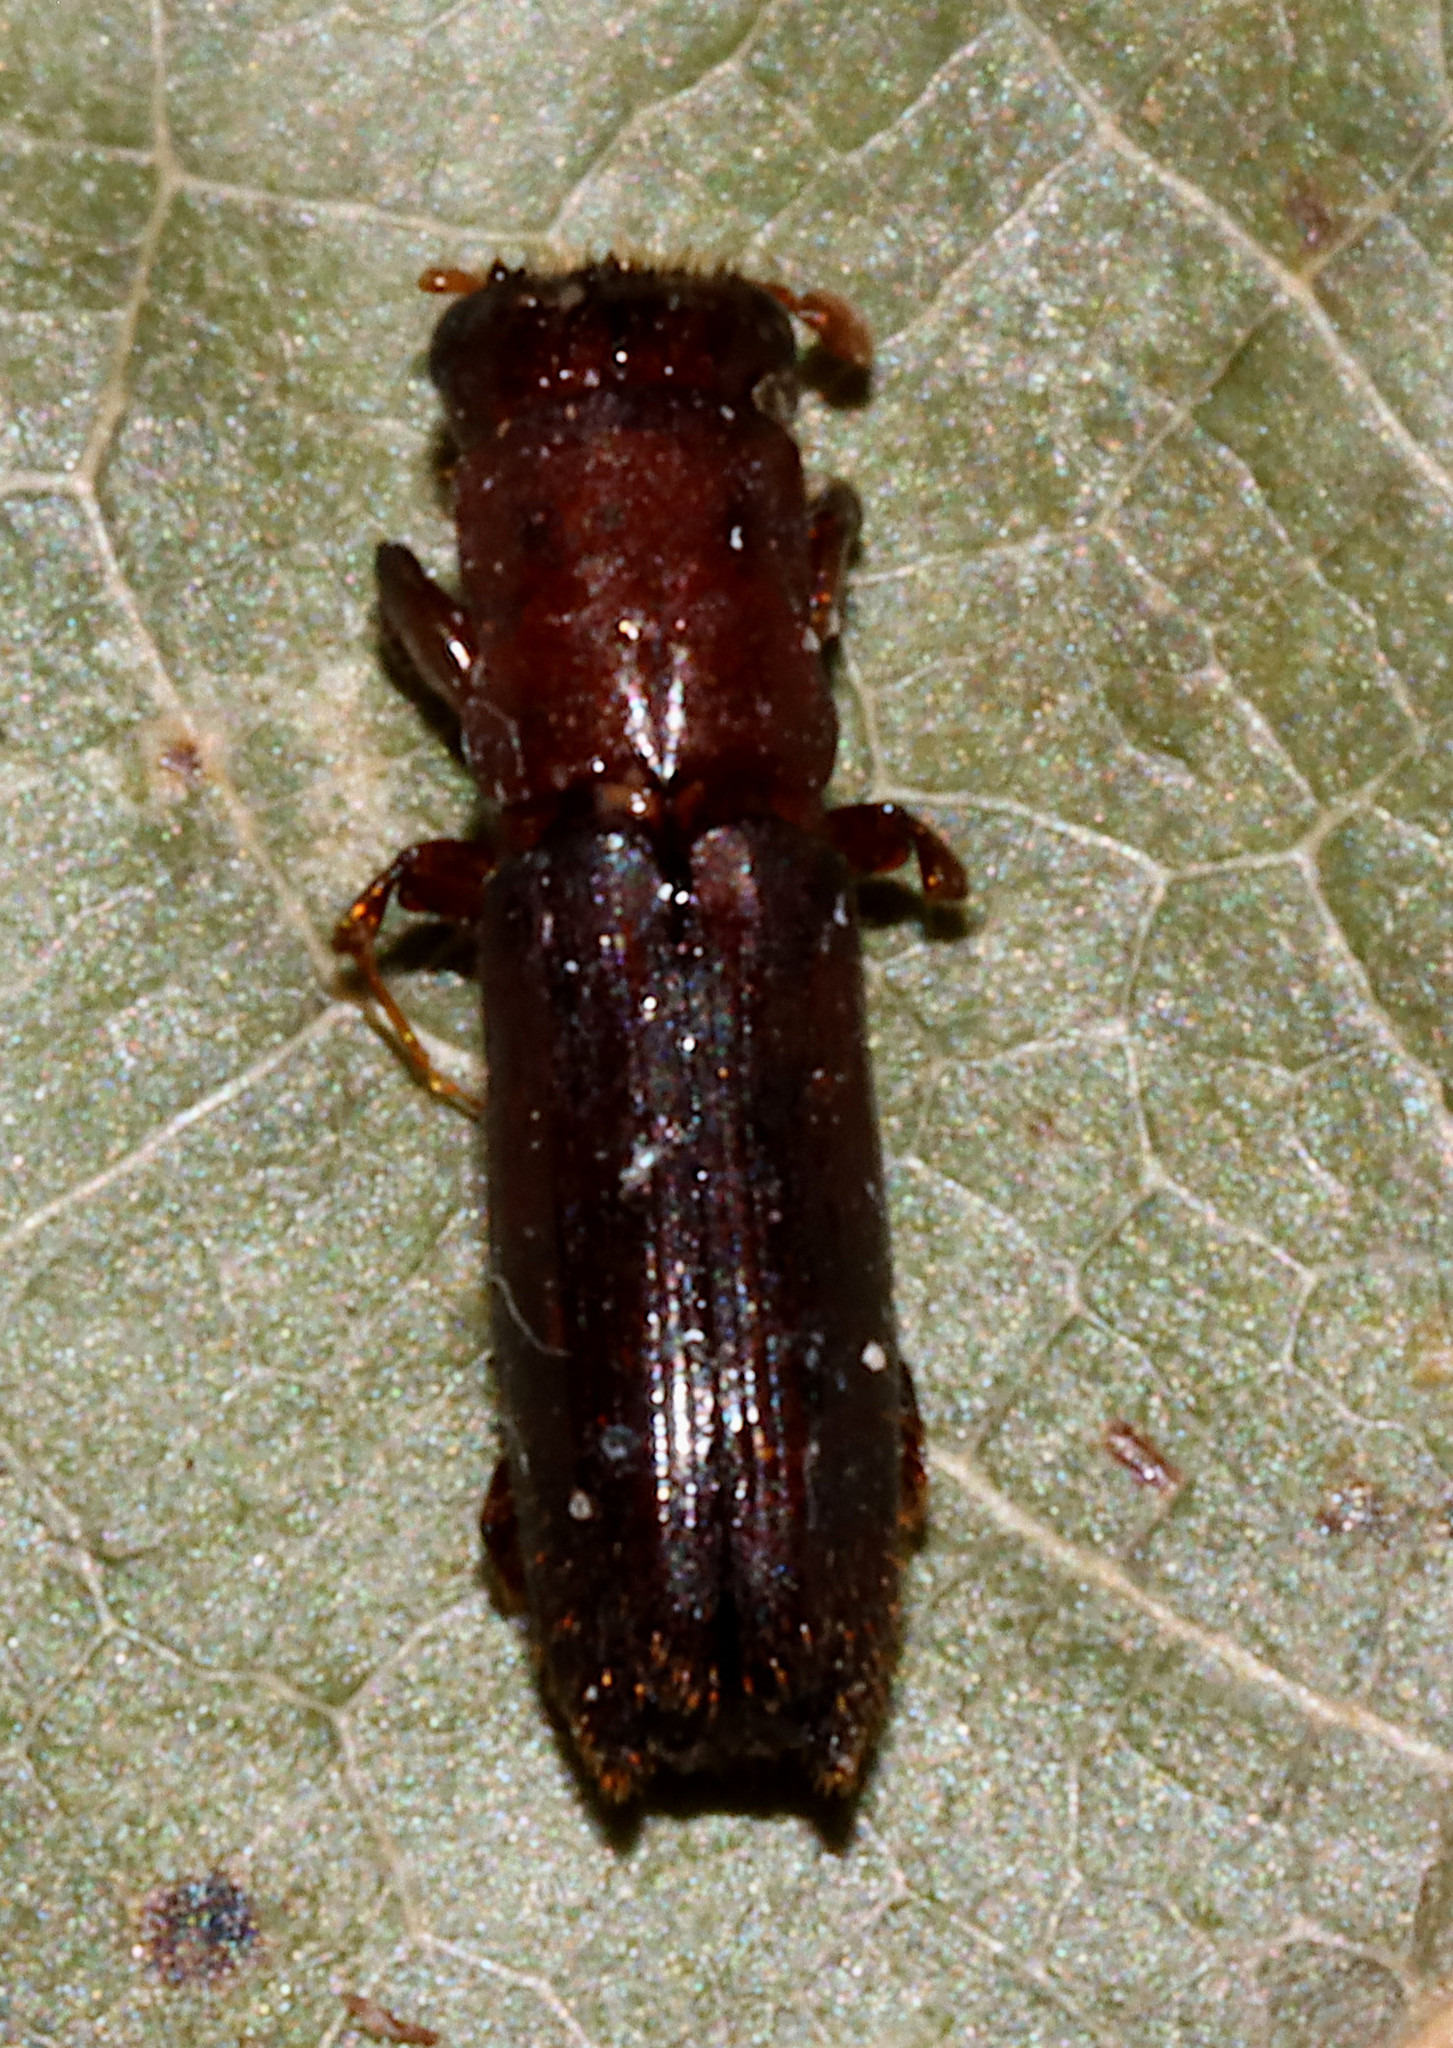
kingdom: Animalia
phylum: Arthropoda
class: Insecta
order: Coleoptera
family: Curculionidae
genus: Myoplatypus
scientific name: Myoplatypus flavicornis
